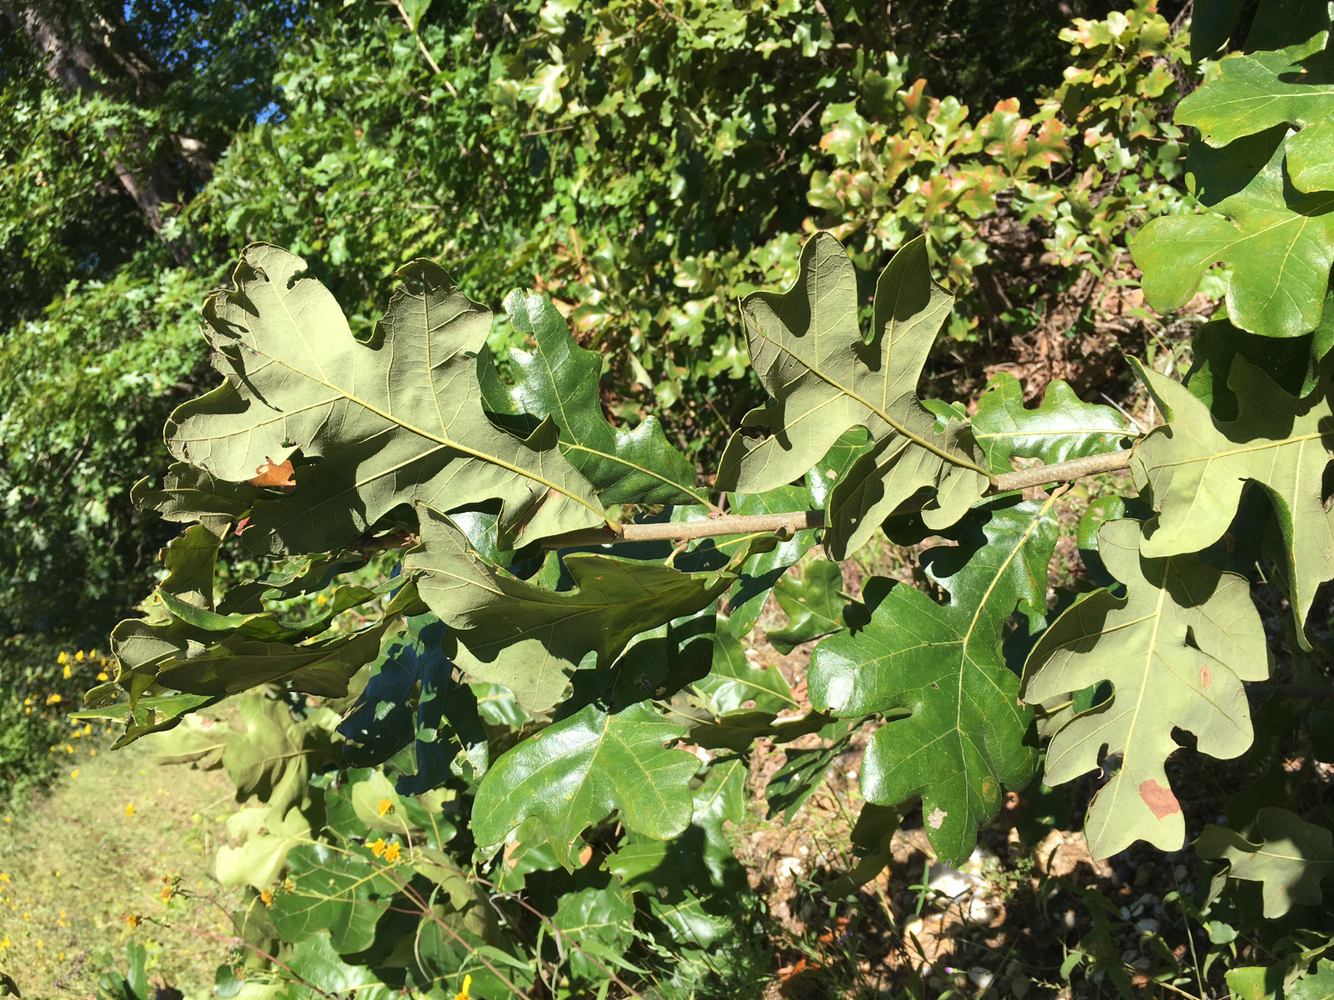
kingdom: Plantae
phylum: Tracheophyta
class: Magnoliopsida
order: Fagales
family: Fagaceae
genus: Quercus
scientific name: Quercus stellata
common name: Post oak
